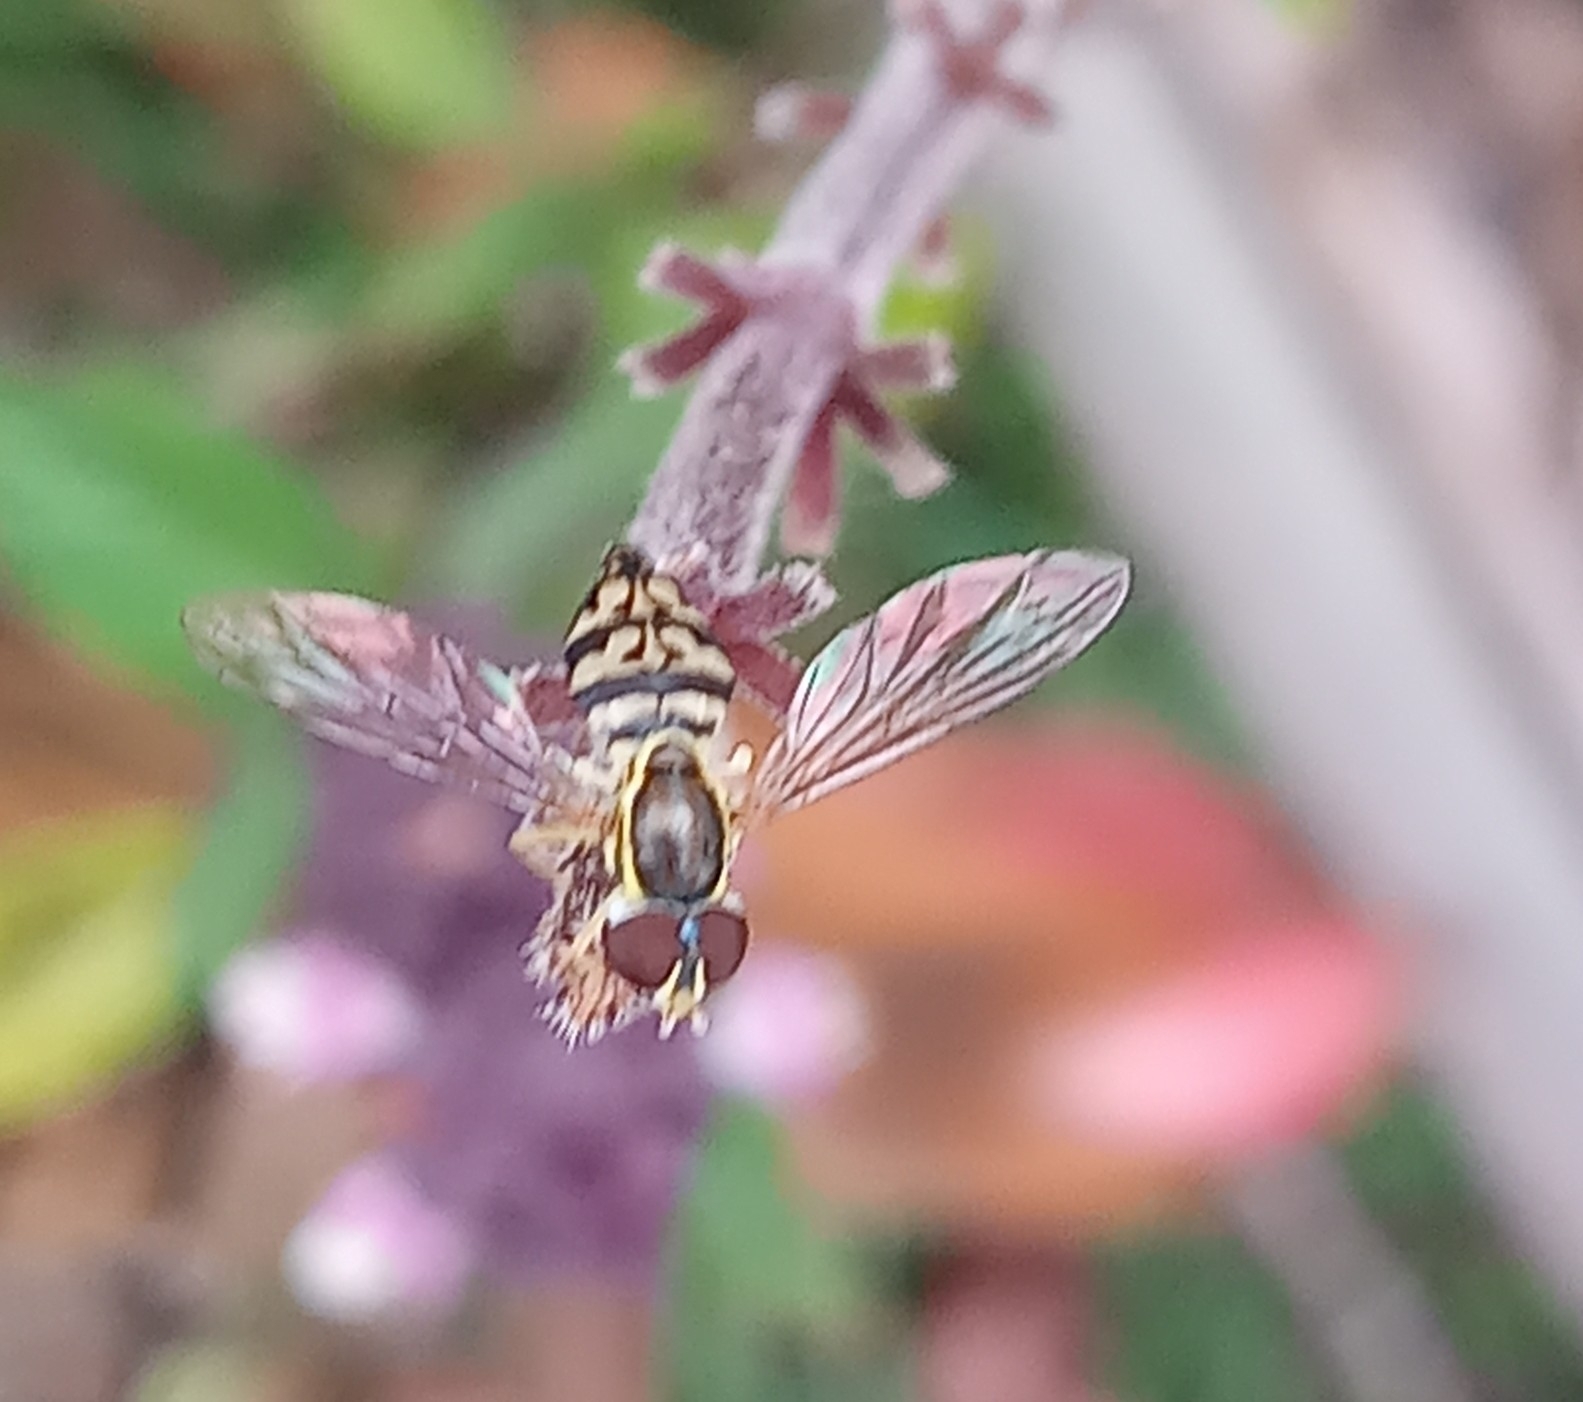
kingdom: Animalia
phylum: Arthropoda
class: Insecta
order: Diptera
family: Syrphidae
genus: Toxomerus
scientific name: Toxomerus geminatus
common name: Eastern calligrapher
